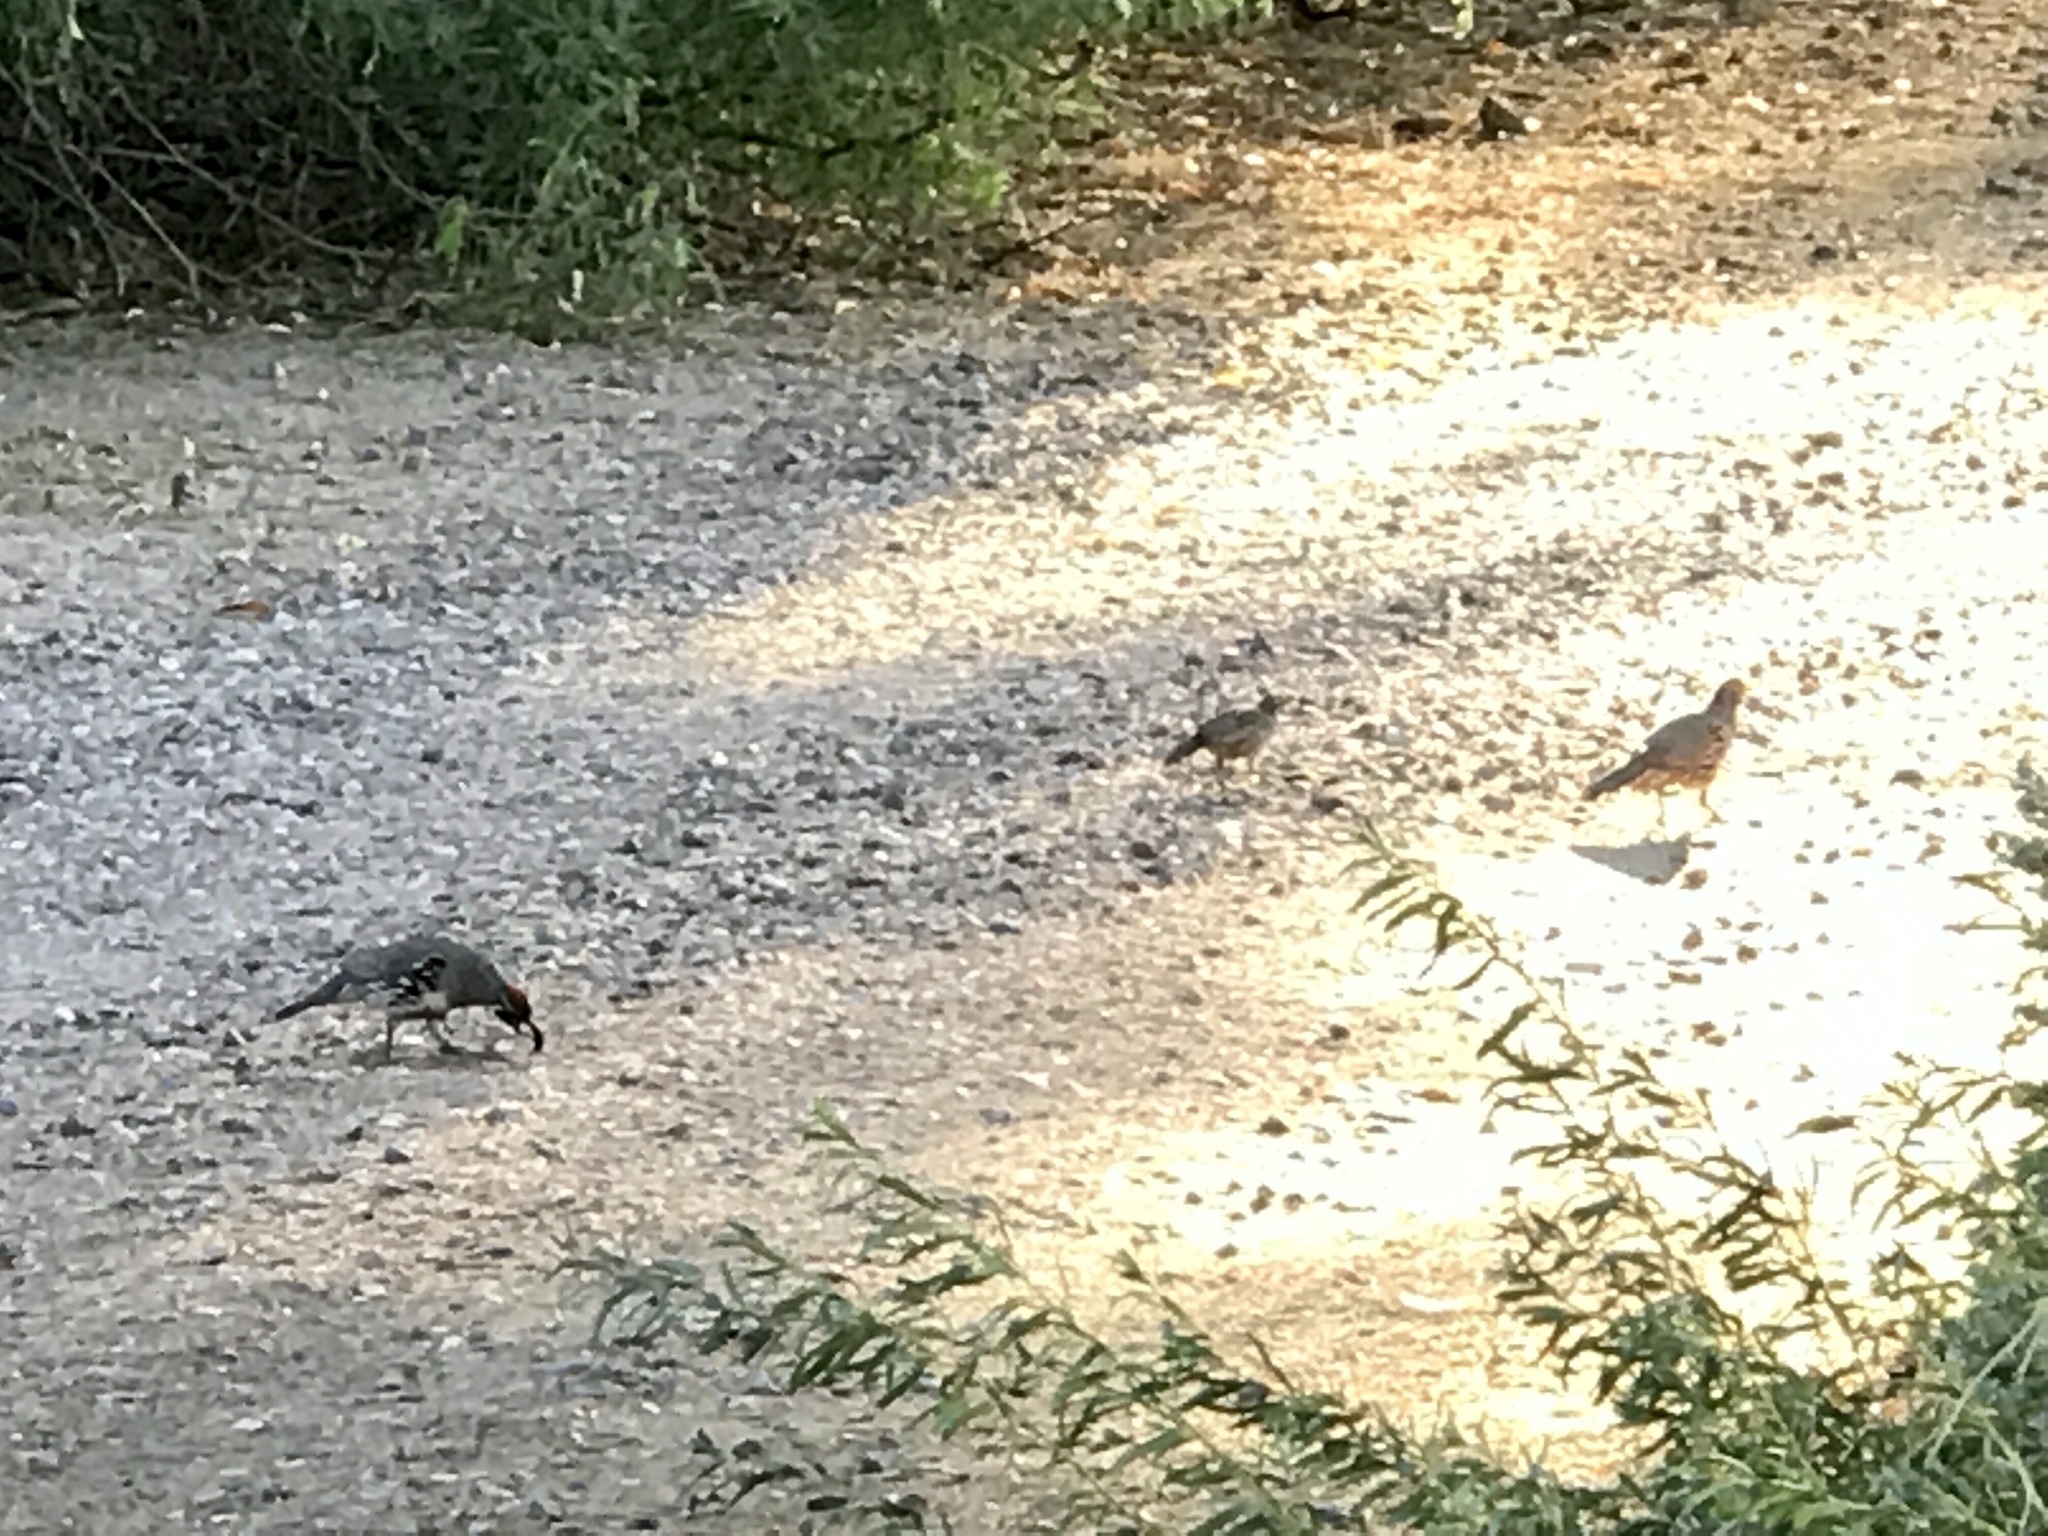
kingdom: Animalia
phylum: Chordata
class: Aves
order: Galliformes
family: Odontophoridae
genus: Callipepla
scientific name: Callipepla gambelii
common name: Gambel's quail
